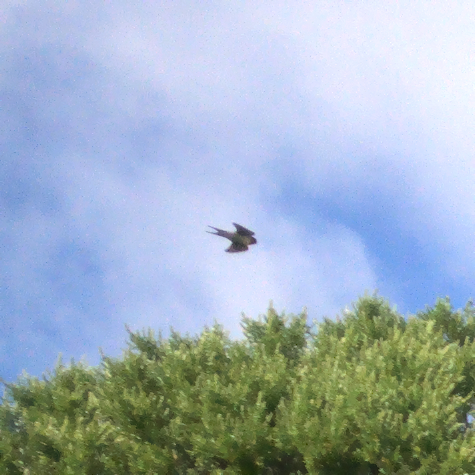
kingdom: Animalia
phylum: Chordata
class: Aves
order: Passeriformes
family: Hirundinidae
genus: Hirundo
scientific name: Hirundo neoxena
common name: Welcome swallow
